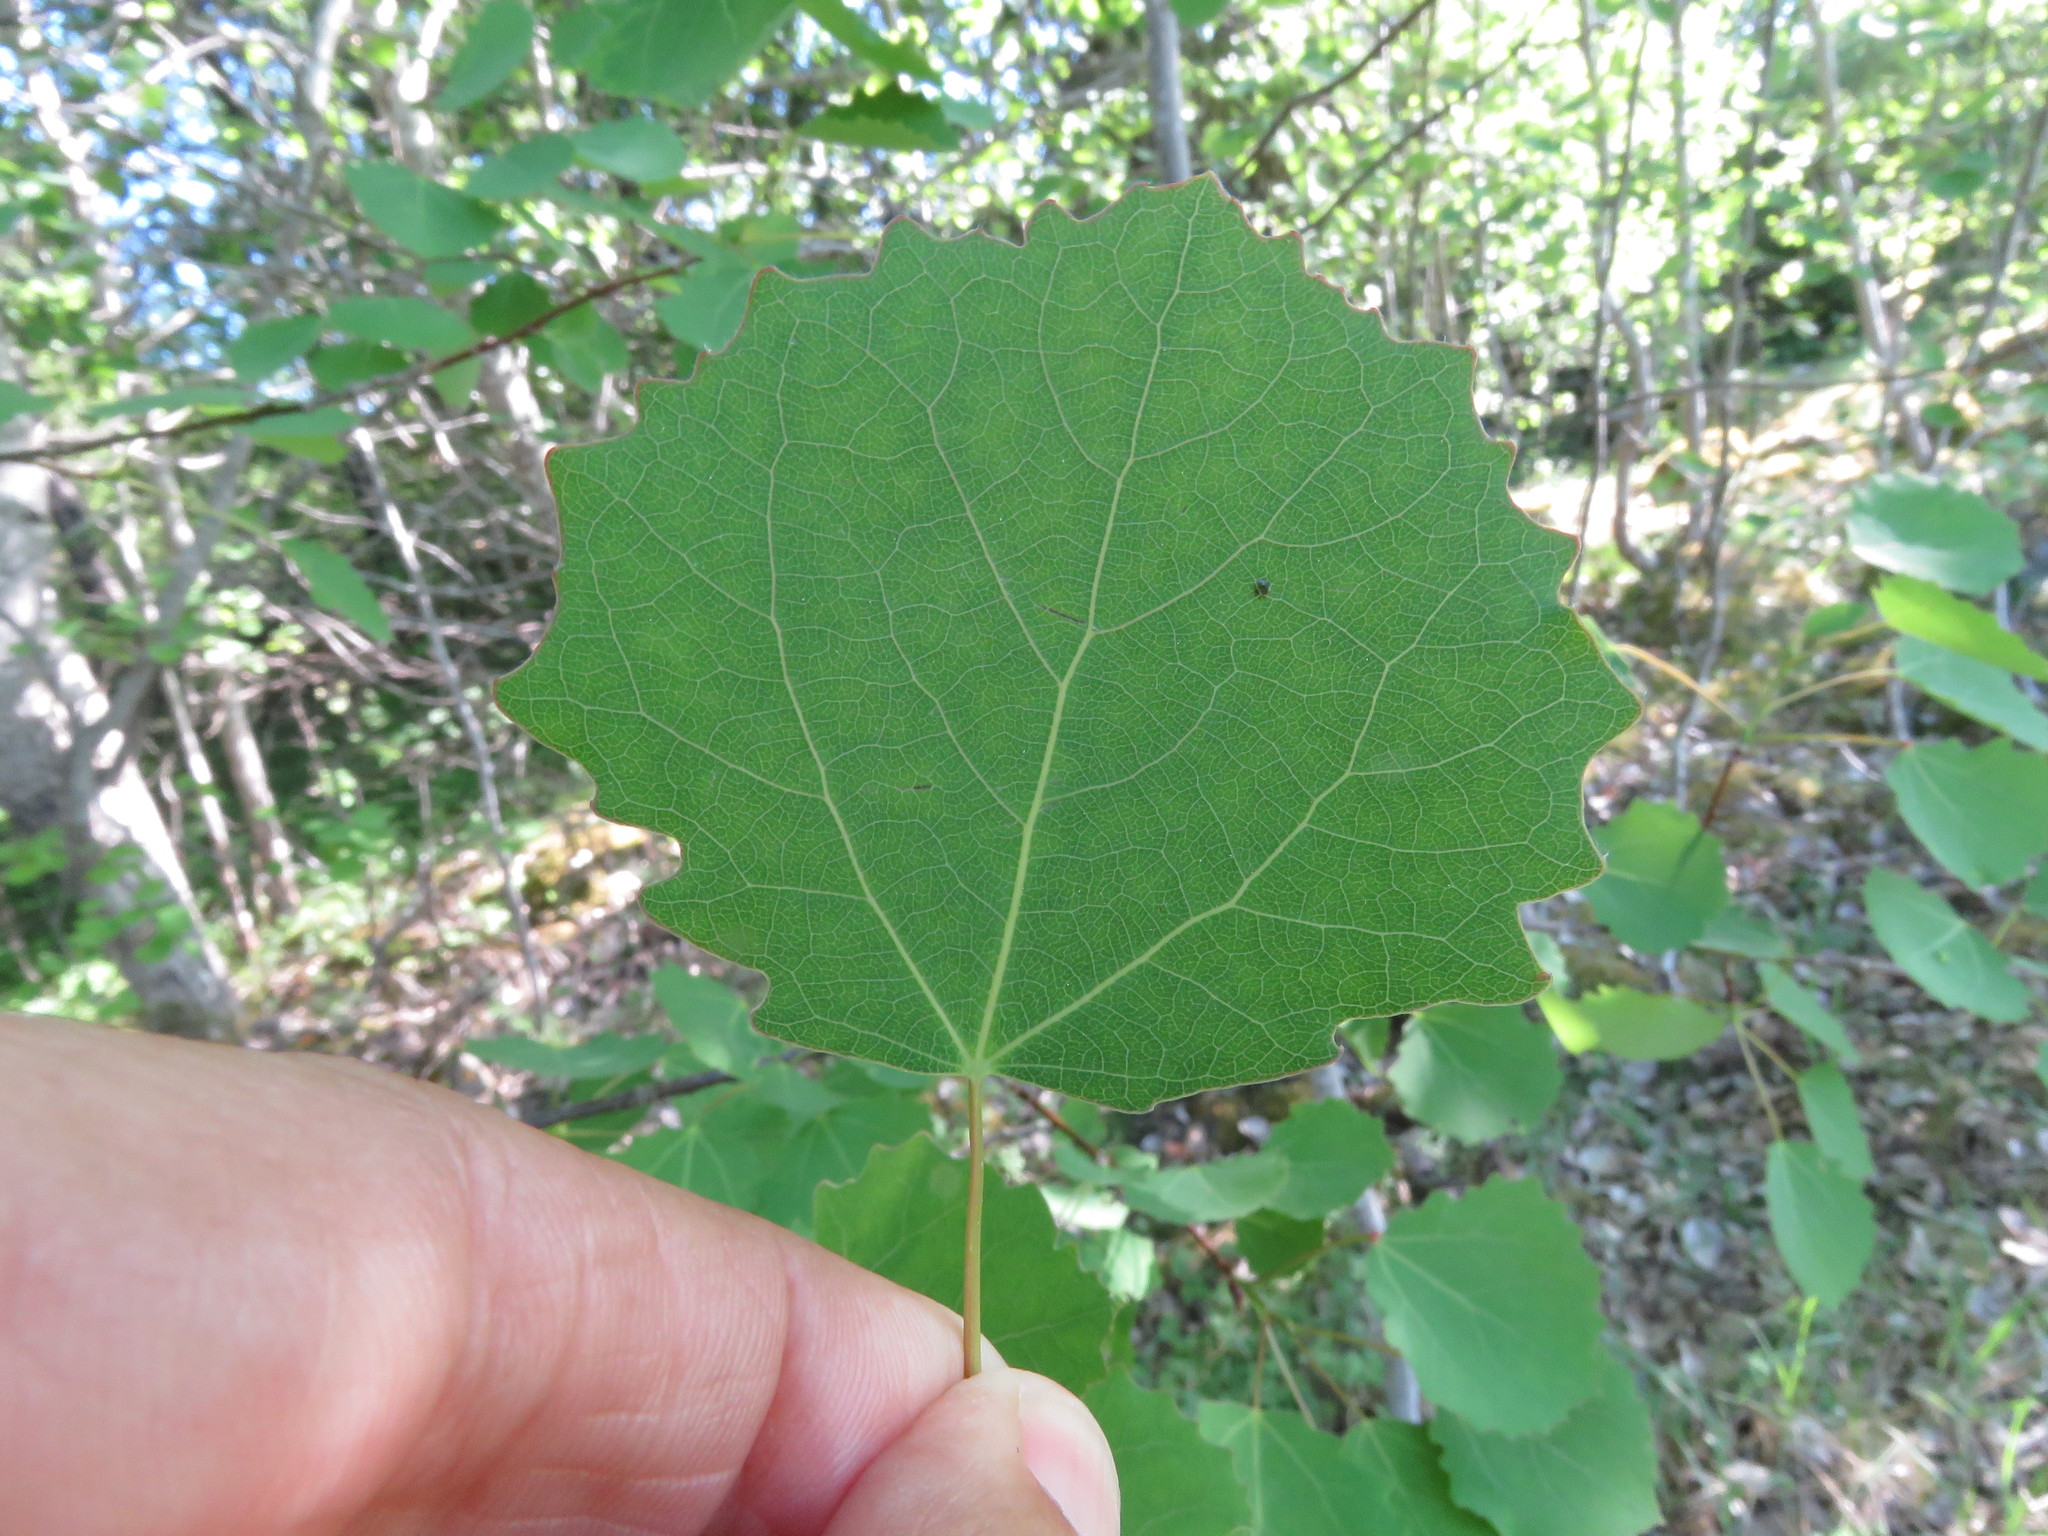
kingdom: Plantae
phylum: Tracheophyta
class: Magnoliopsida
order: Malpighiales
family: Salicaceae
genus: Populus
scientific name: Populus tremula
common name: European aspen
